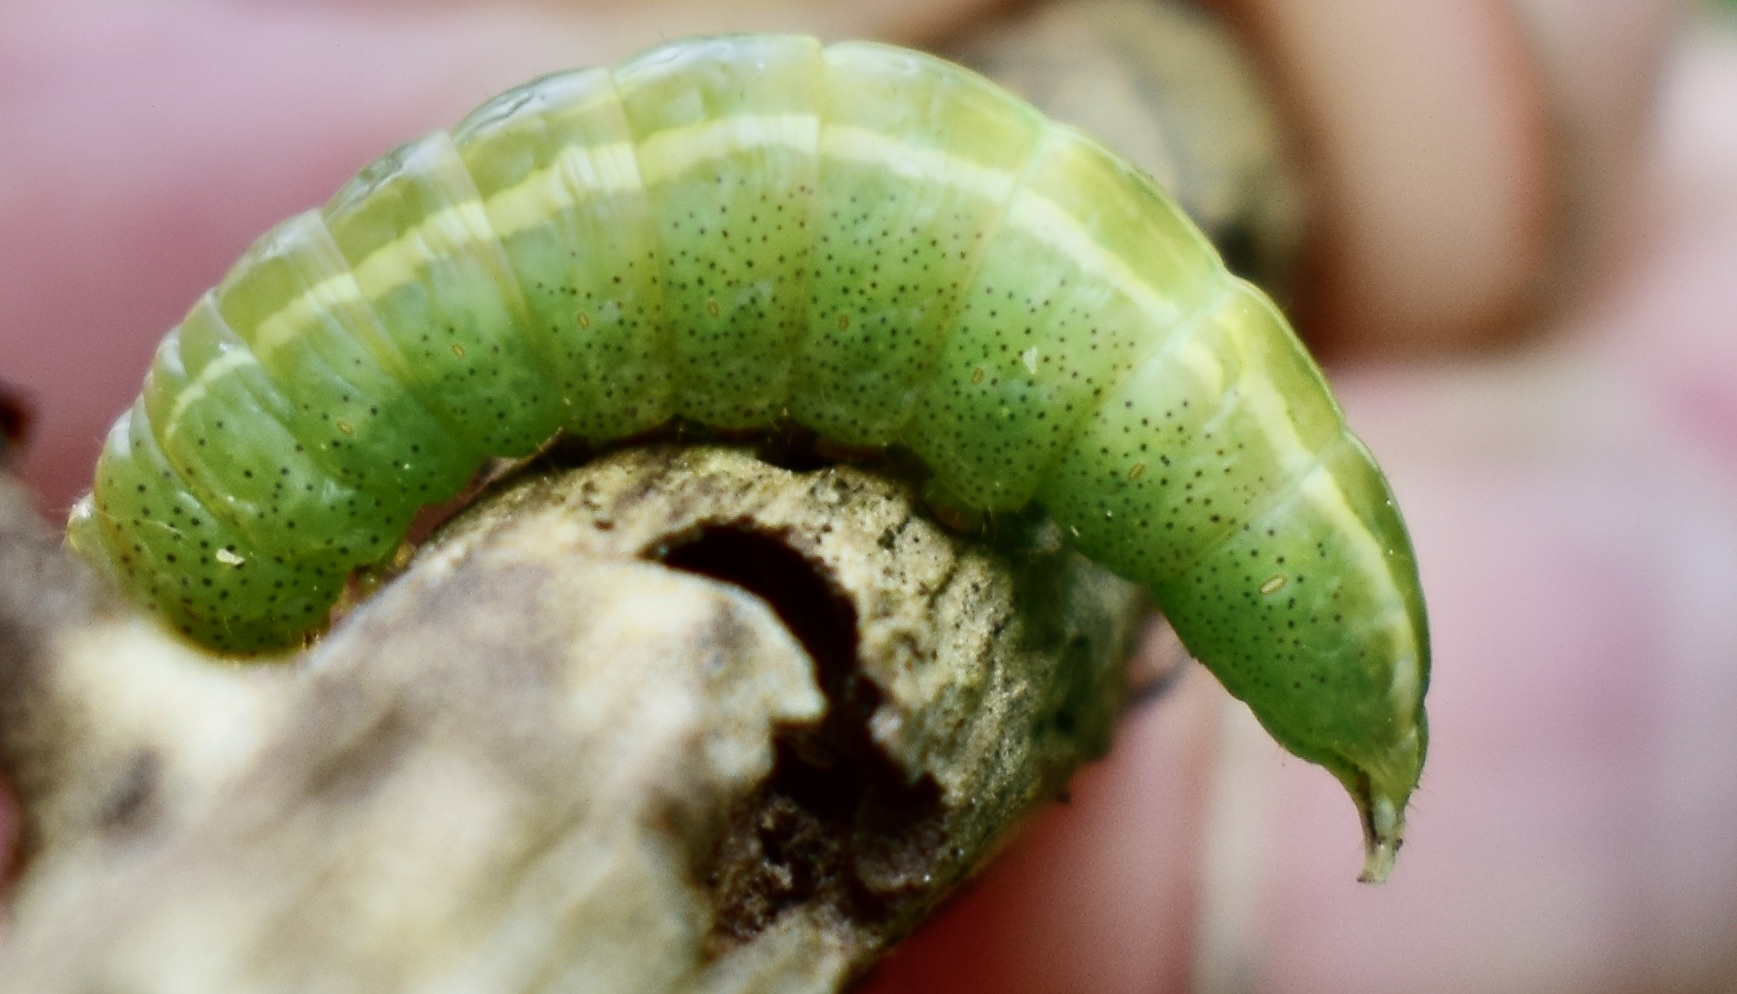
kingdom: Animalia
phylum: Arthropoda
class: Insecta
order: Lepidoptera
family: Notodontidae
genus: Disphragis
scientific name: Disphragis Cecrita guttivitta
